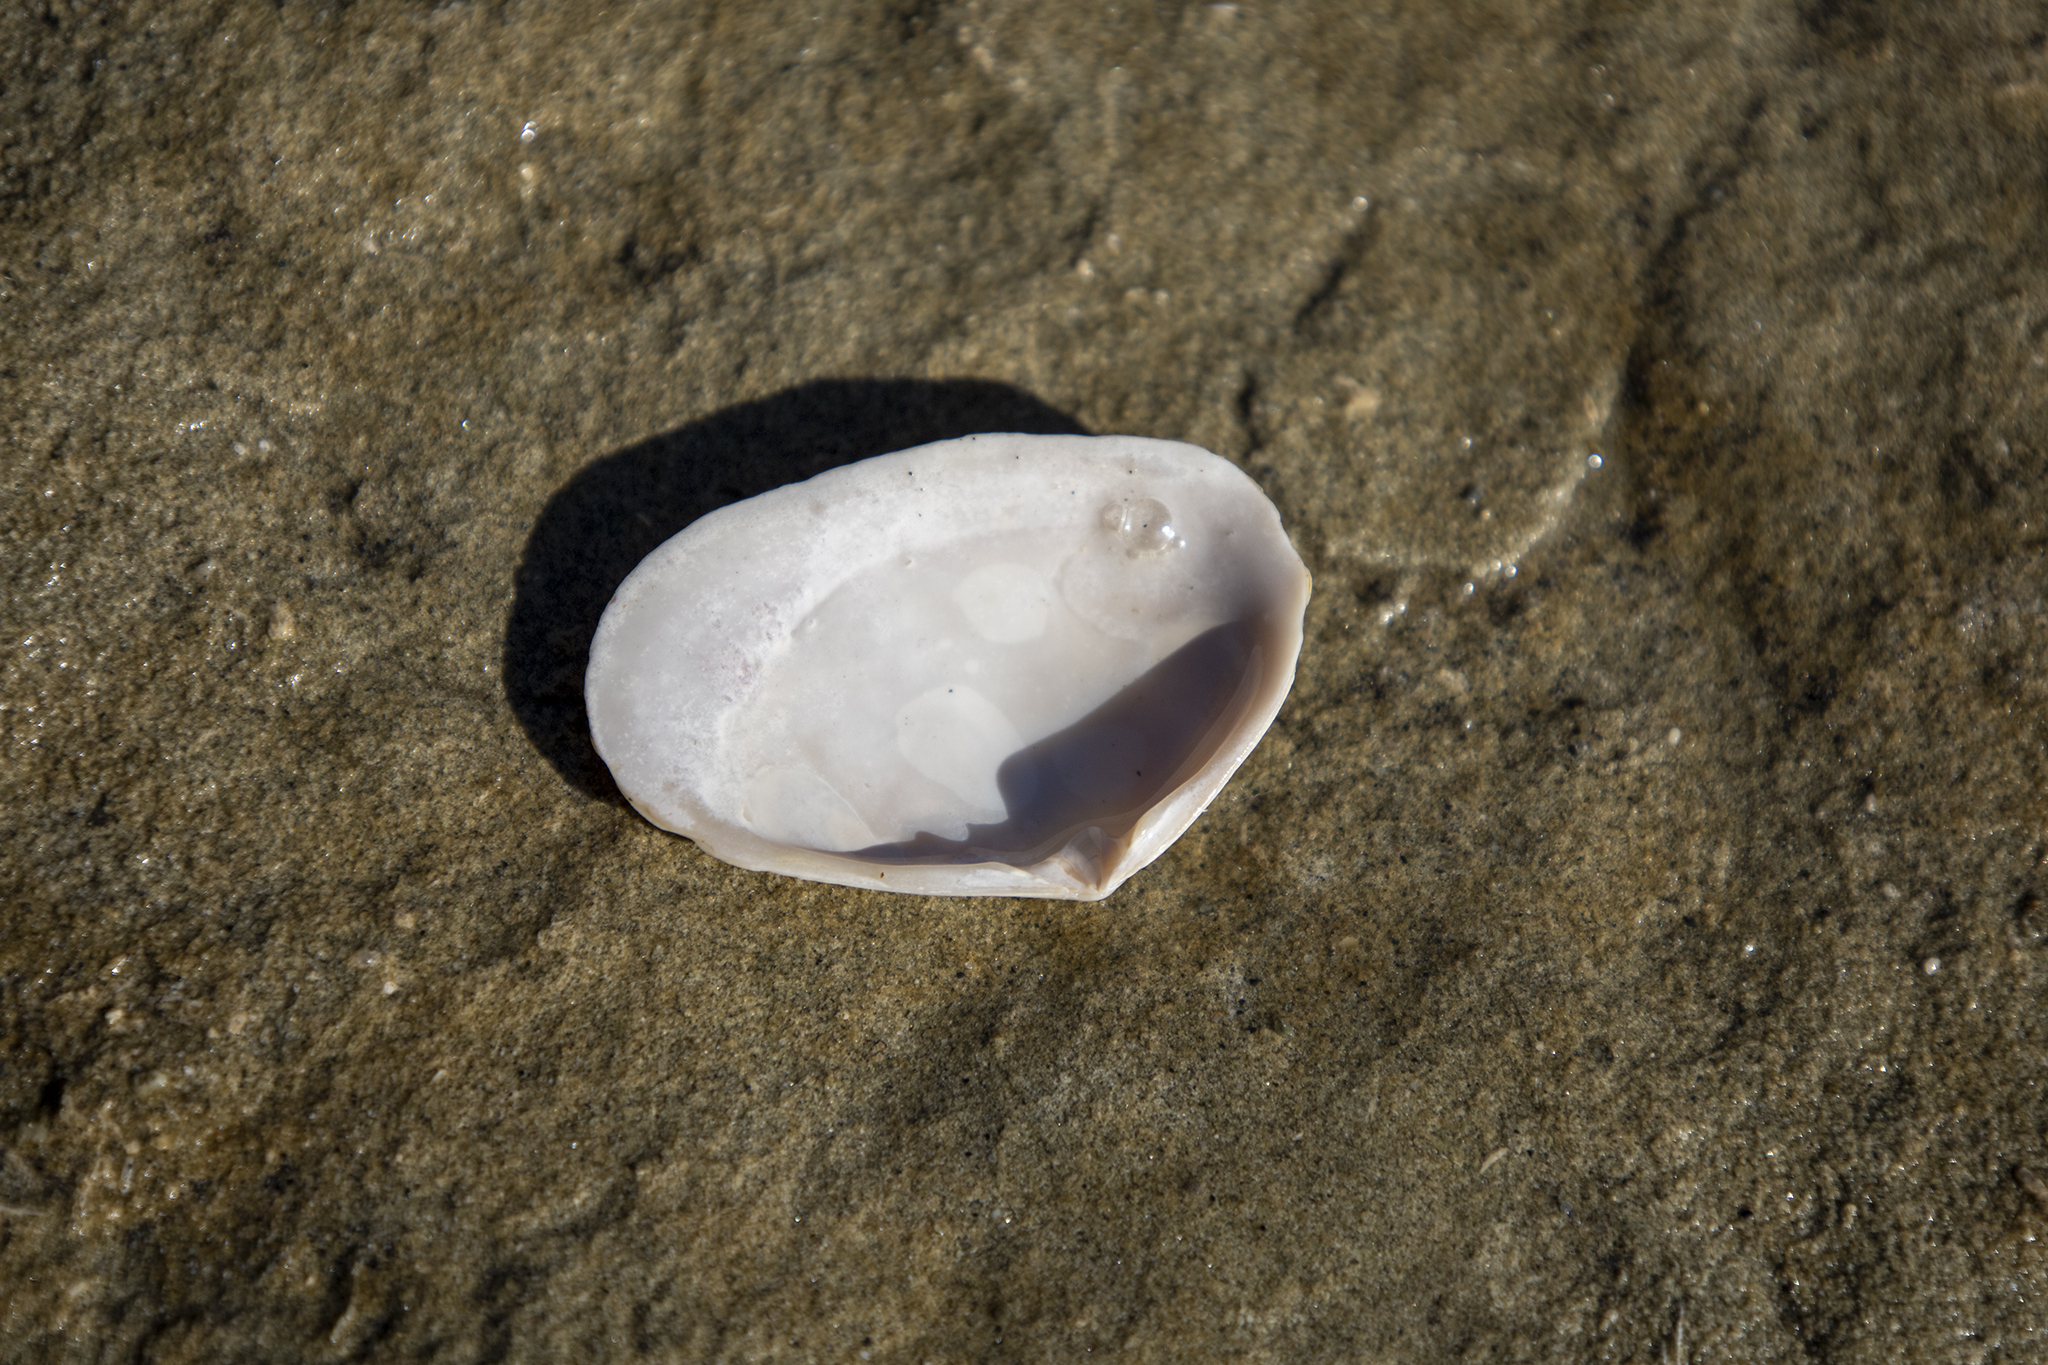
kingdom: Animalia
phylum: Mollusca
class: Bivalvia
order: Venerida
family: Mesodesmatidae
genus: Paphies
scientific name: Paphies donacina
